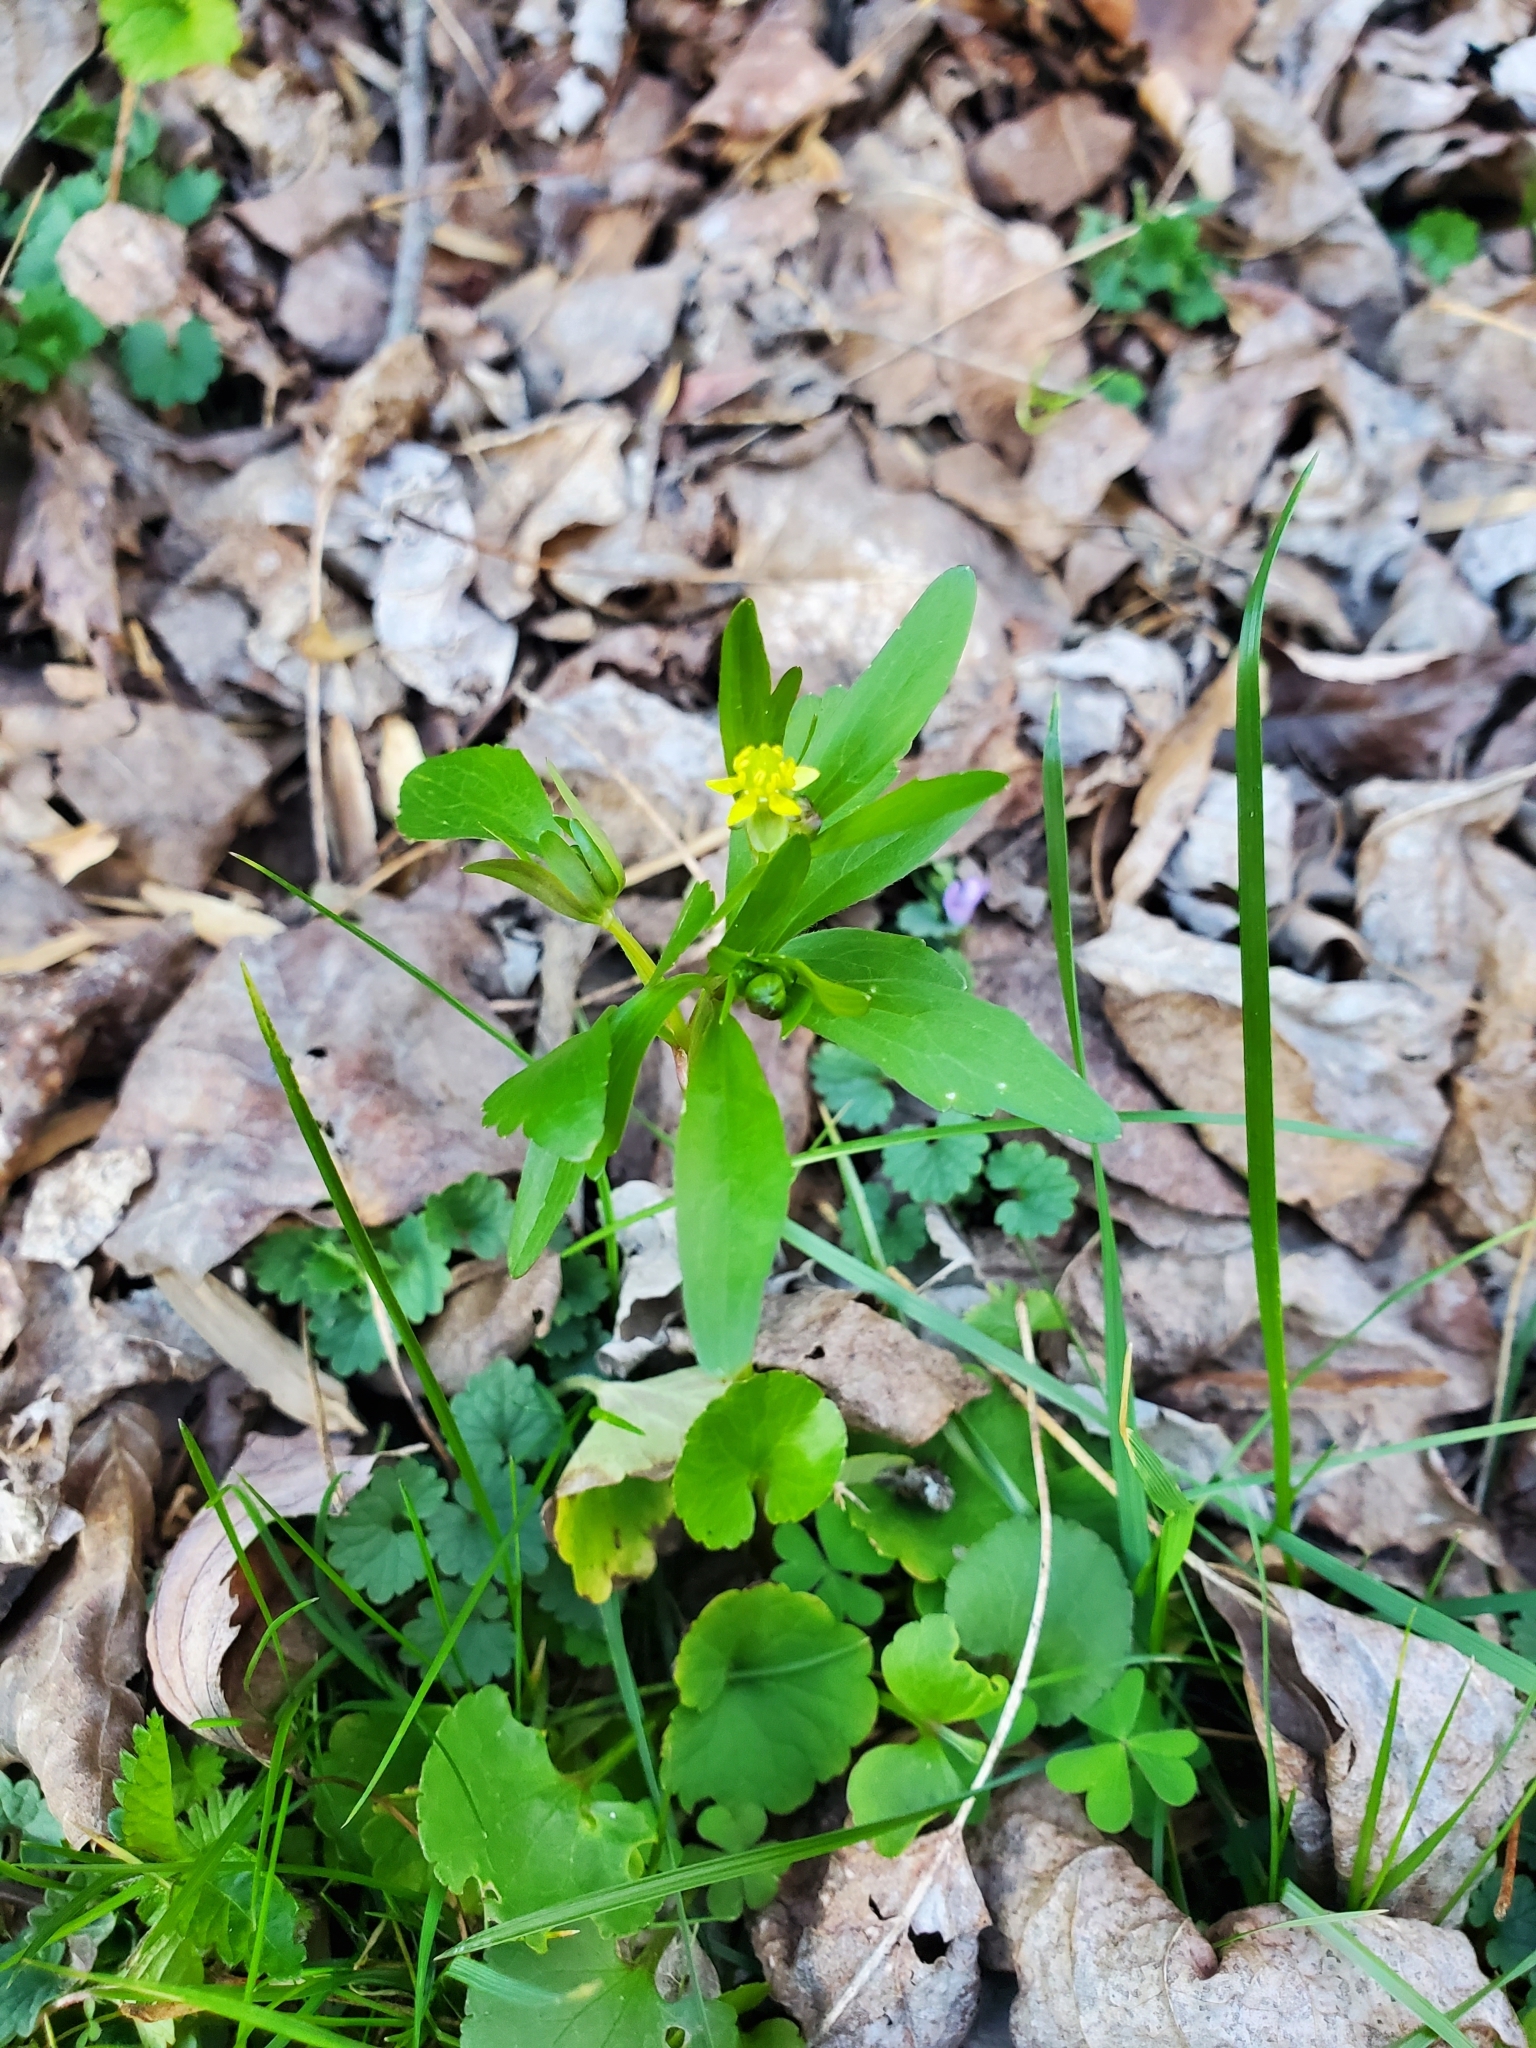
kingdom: Plantae
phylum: Tracheophyta
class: Magnoliopsida
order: Ranunculales
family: Ranunculaceae
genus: Ranunculus
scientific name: Ranunculus abortivus
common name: Early wood buttercup
